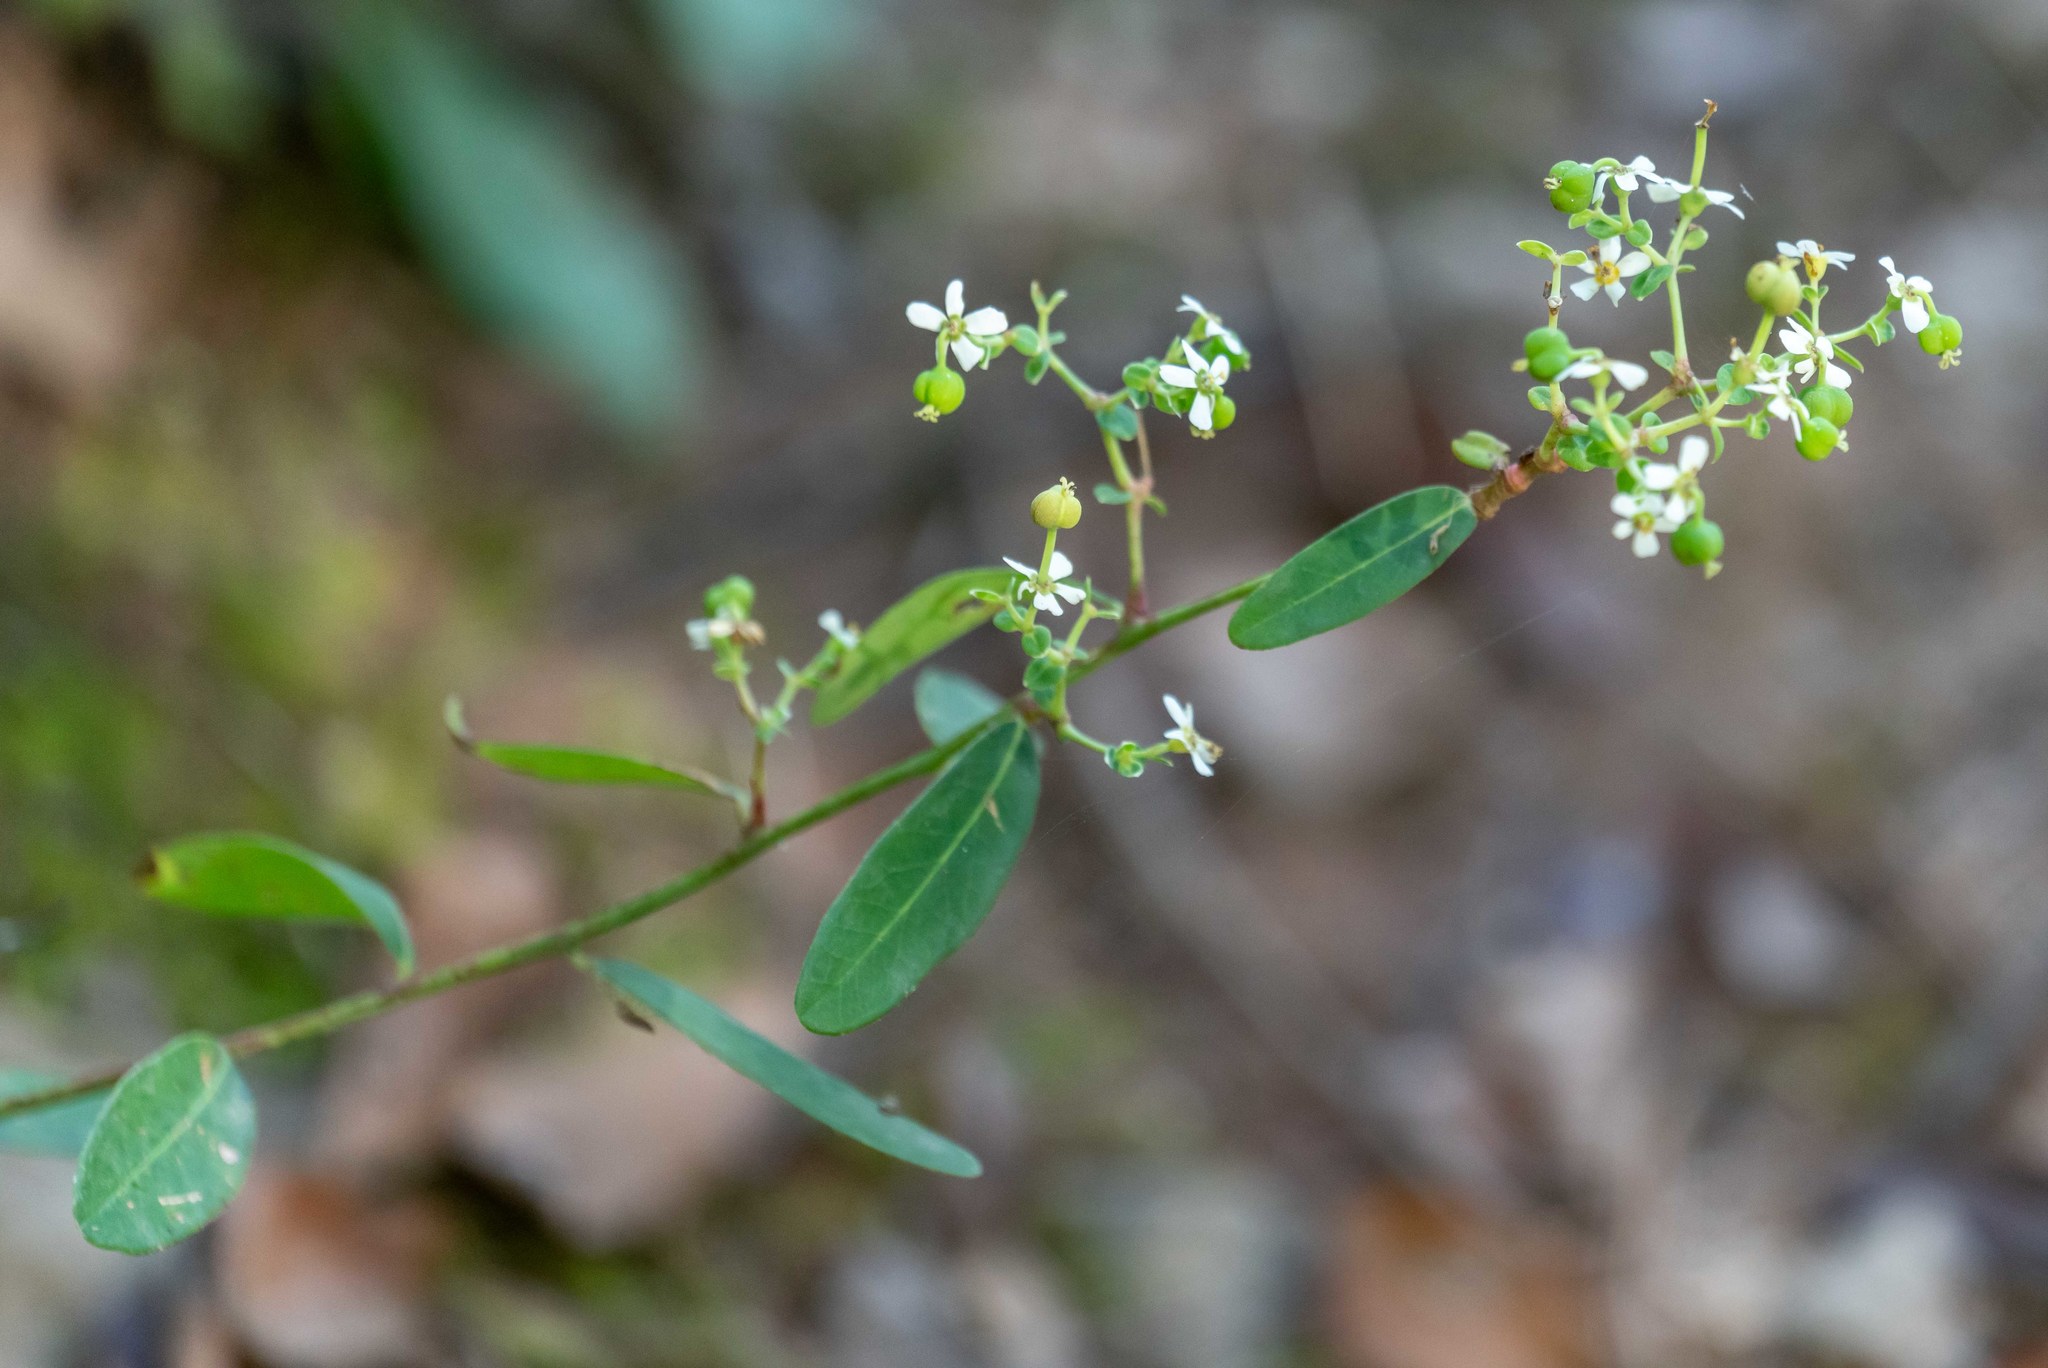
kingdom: Plantae
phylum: Tracheophyta
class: Magnoliopsida
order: Malpighiales
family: Euphorbiaceae
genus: Euphorbia
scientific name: Euphorbia corollata
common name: Flowering spurge
